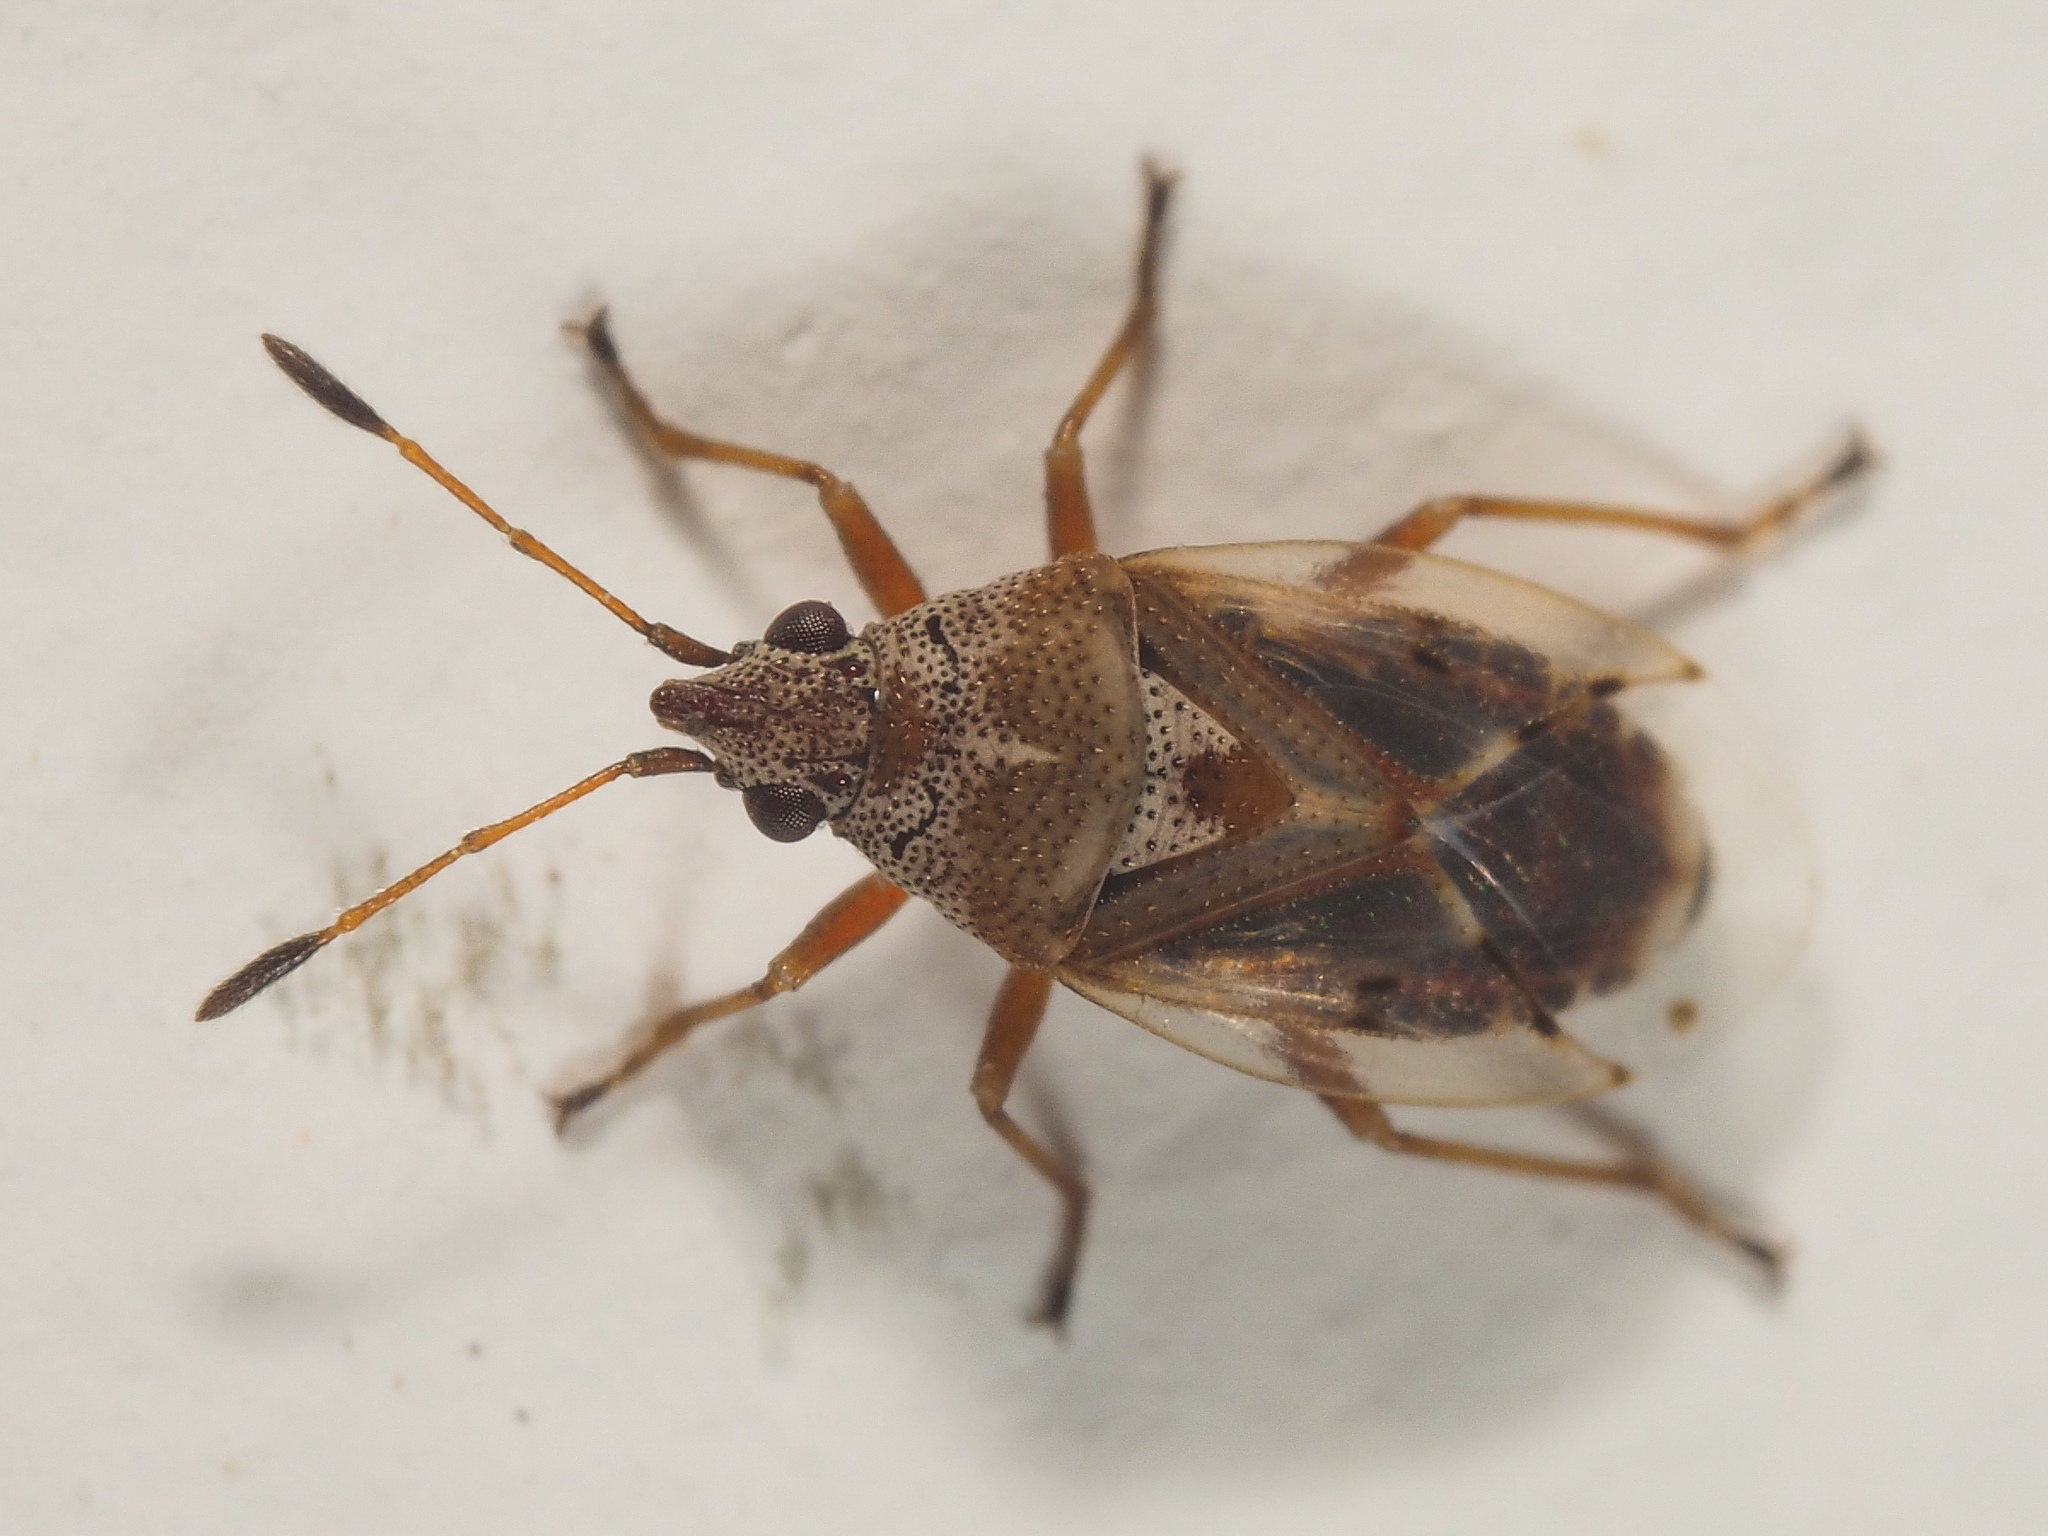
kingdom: Animalia
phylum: Arthropoda
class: Insecta
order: Hemiptera
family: Lygaeidae
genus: Kleidocerys
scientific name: Kleidocerys ericae
